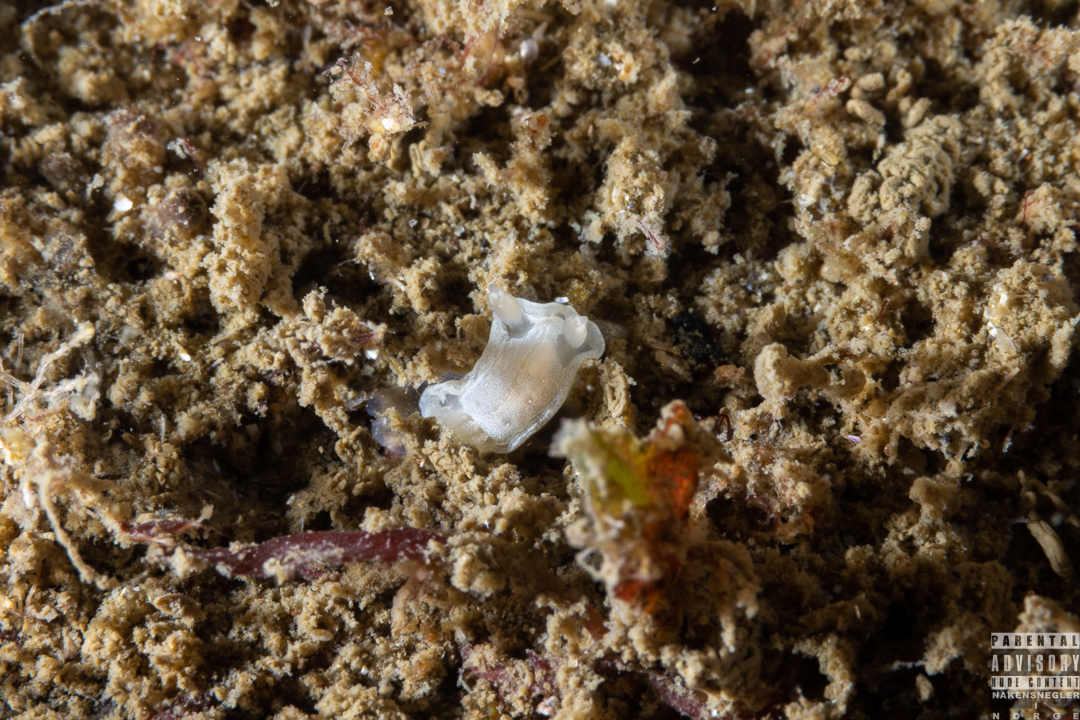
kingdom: Animalia
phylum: Mollusca
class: Gastropoda
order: Nudibranchia
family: Goniodorididae
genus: Okenia
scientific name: Okenia
